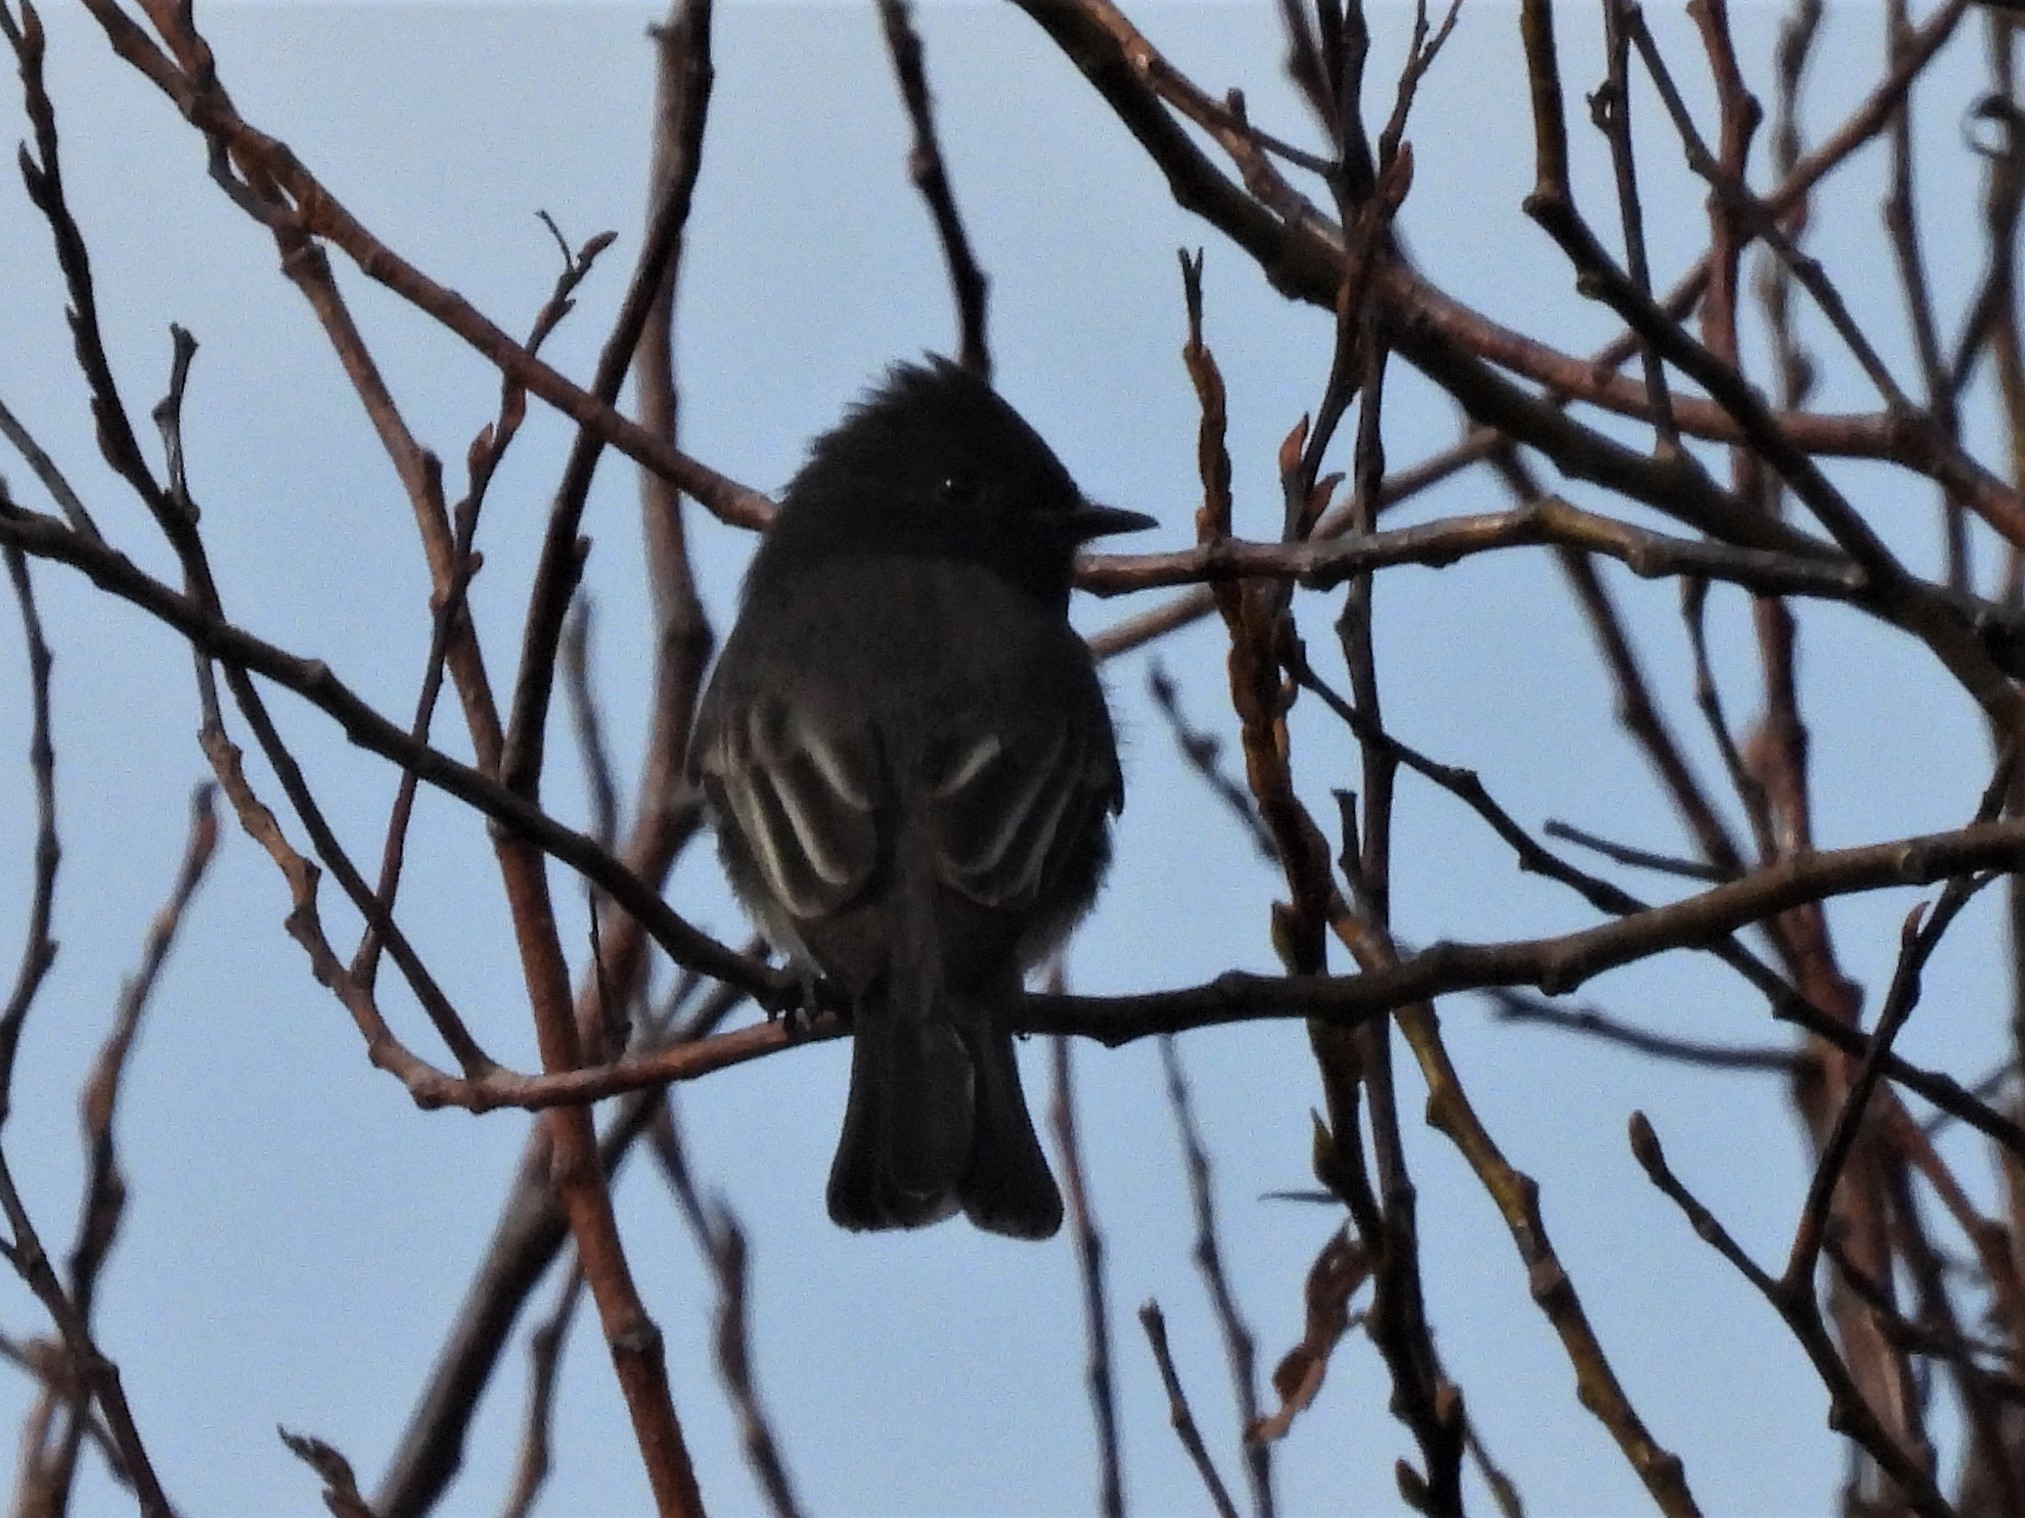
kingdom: Animalia
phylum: Chordata
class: Aves
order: Passeriformes
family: Tyrannidae
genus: Sayornis
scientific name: Sayornis nigricans
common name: Black phoebe
